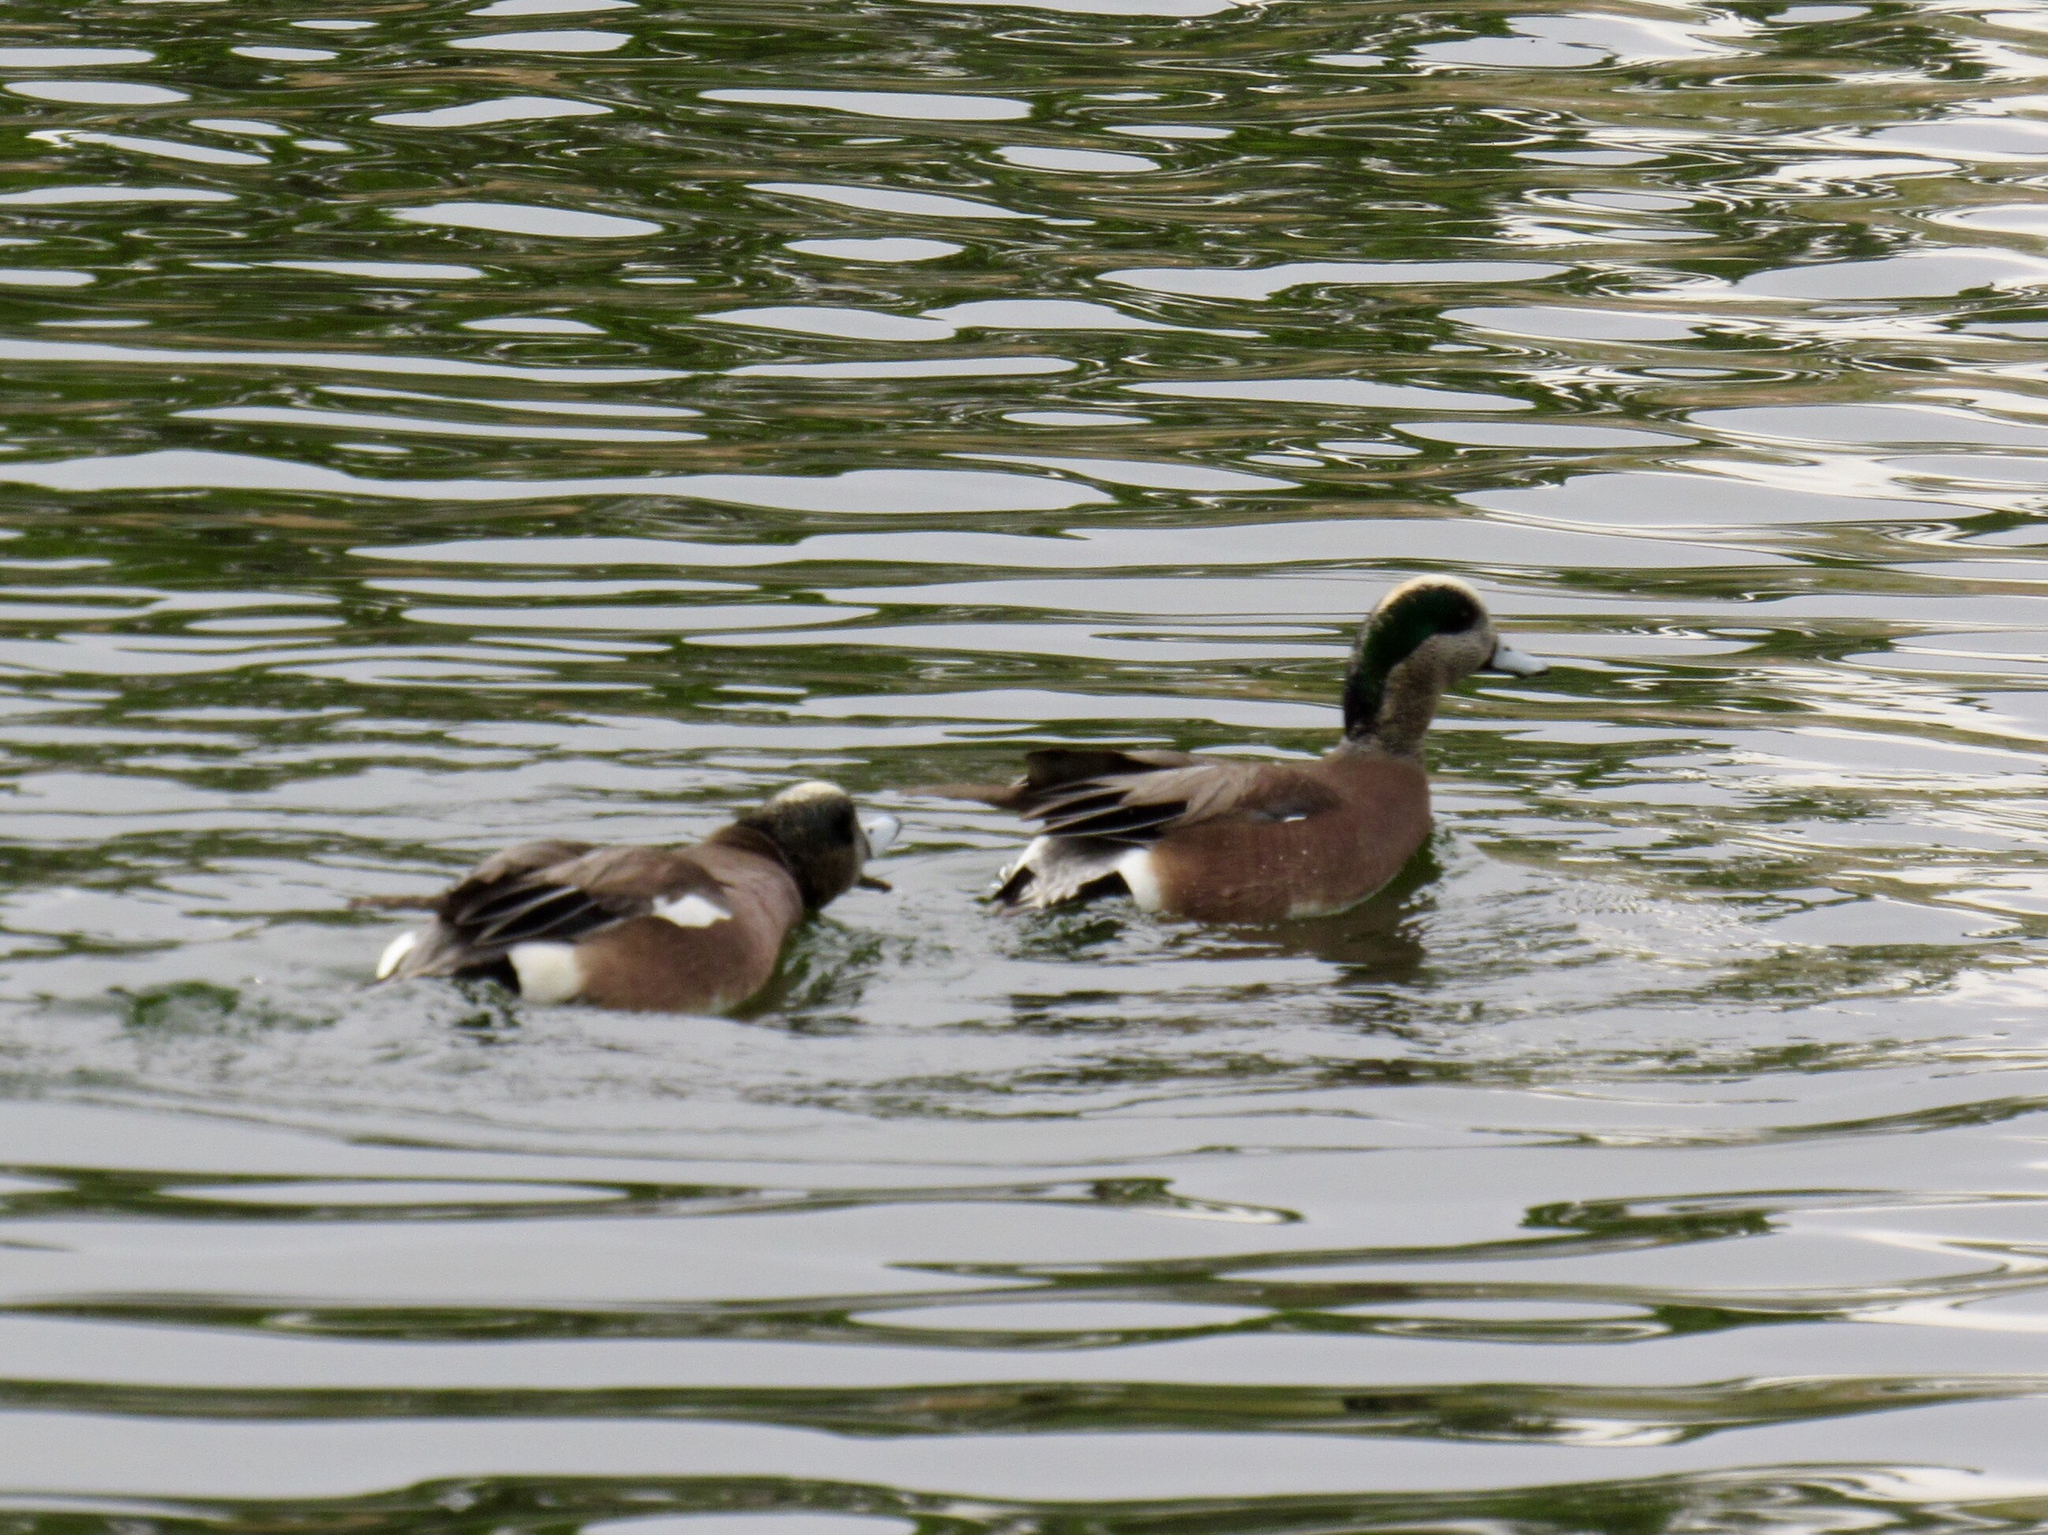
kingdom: Animalia
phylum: Chordata
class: Aves
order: Anseriformes
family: Anatidae
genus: Mareca
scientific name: Mareca americana
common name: American wigeon
